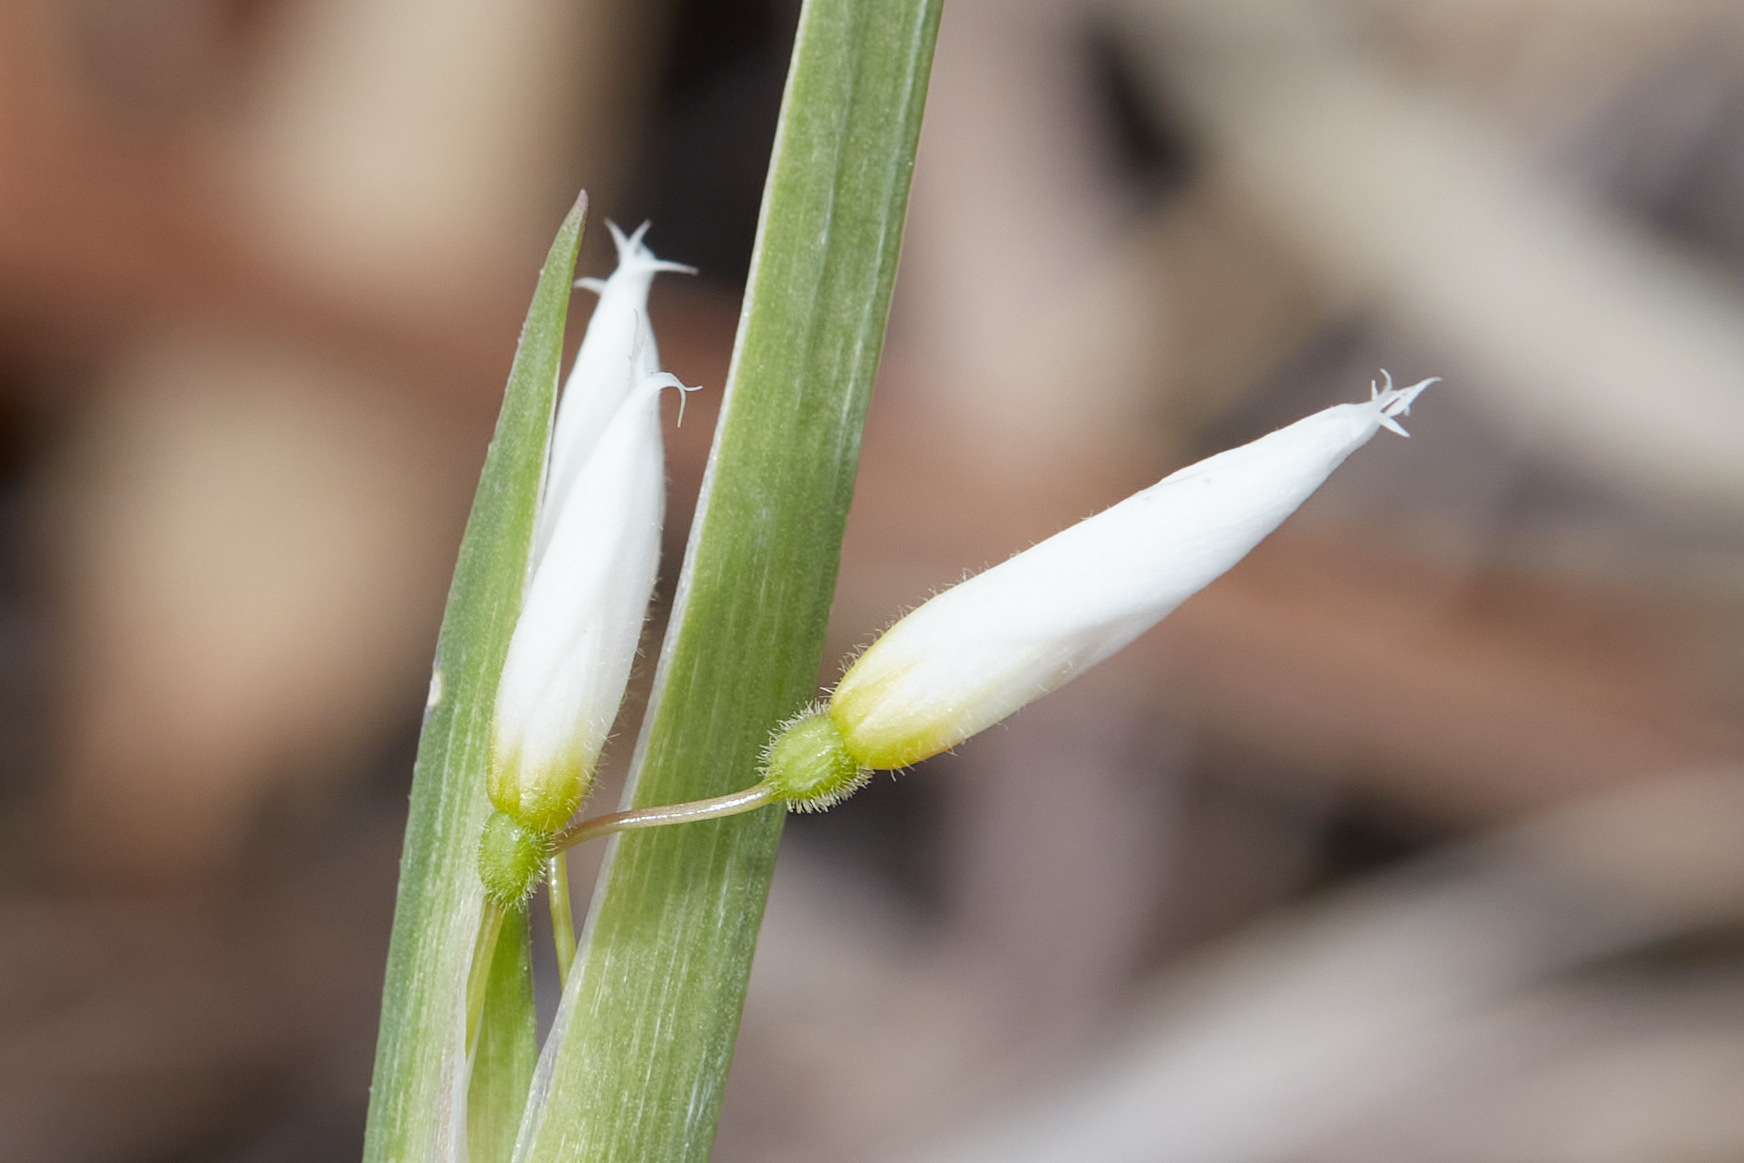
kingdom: Plantae
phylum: Tracheophyta
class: Liliopsida
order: Asparagales
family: Iridaceae
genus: Sisyrinchium
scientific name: Sisyrinchium albidum
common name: Pale blue-eyed-grass
